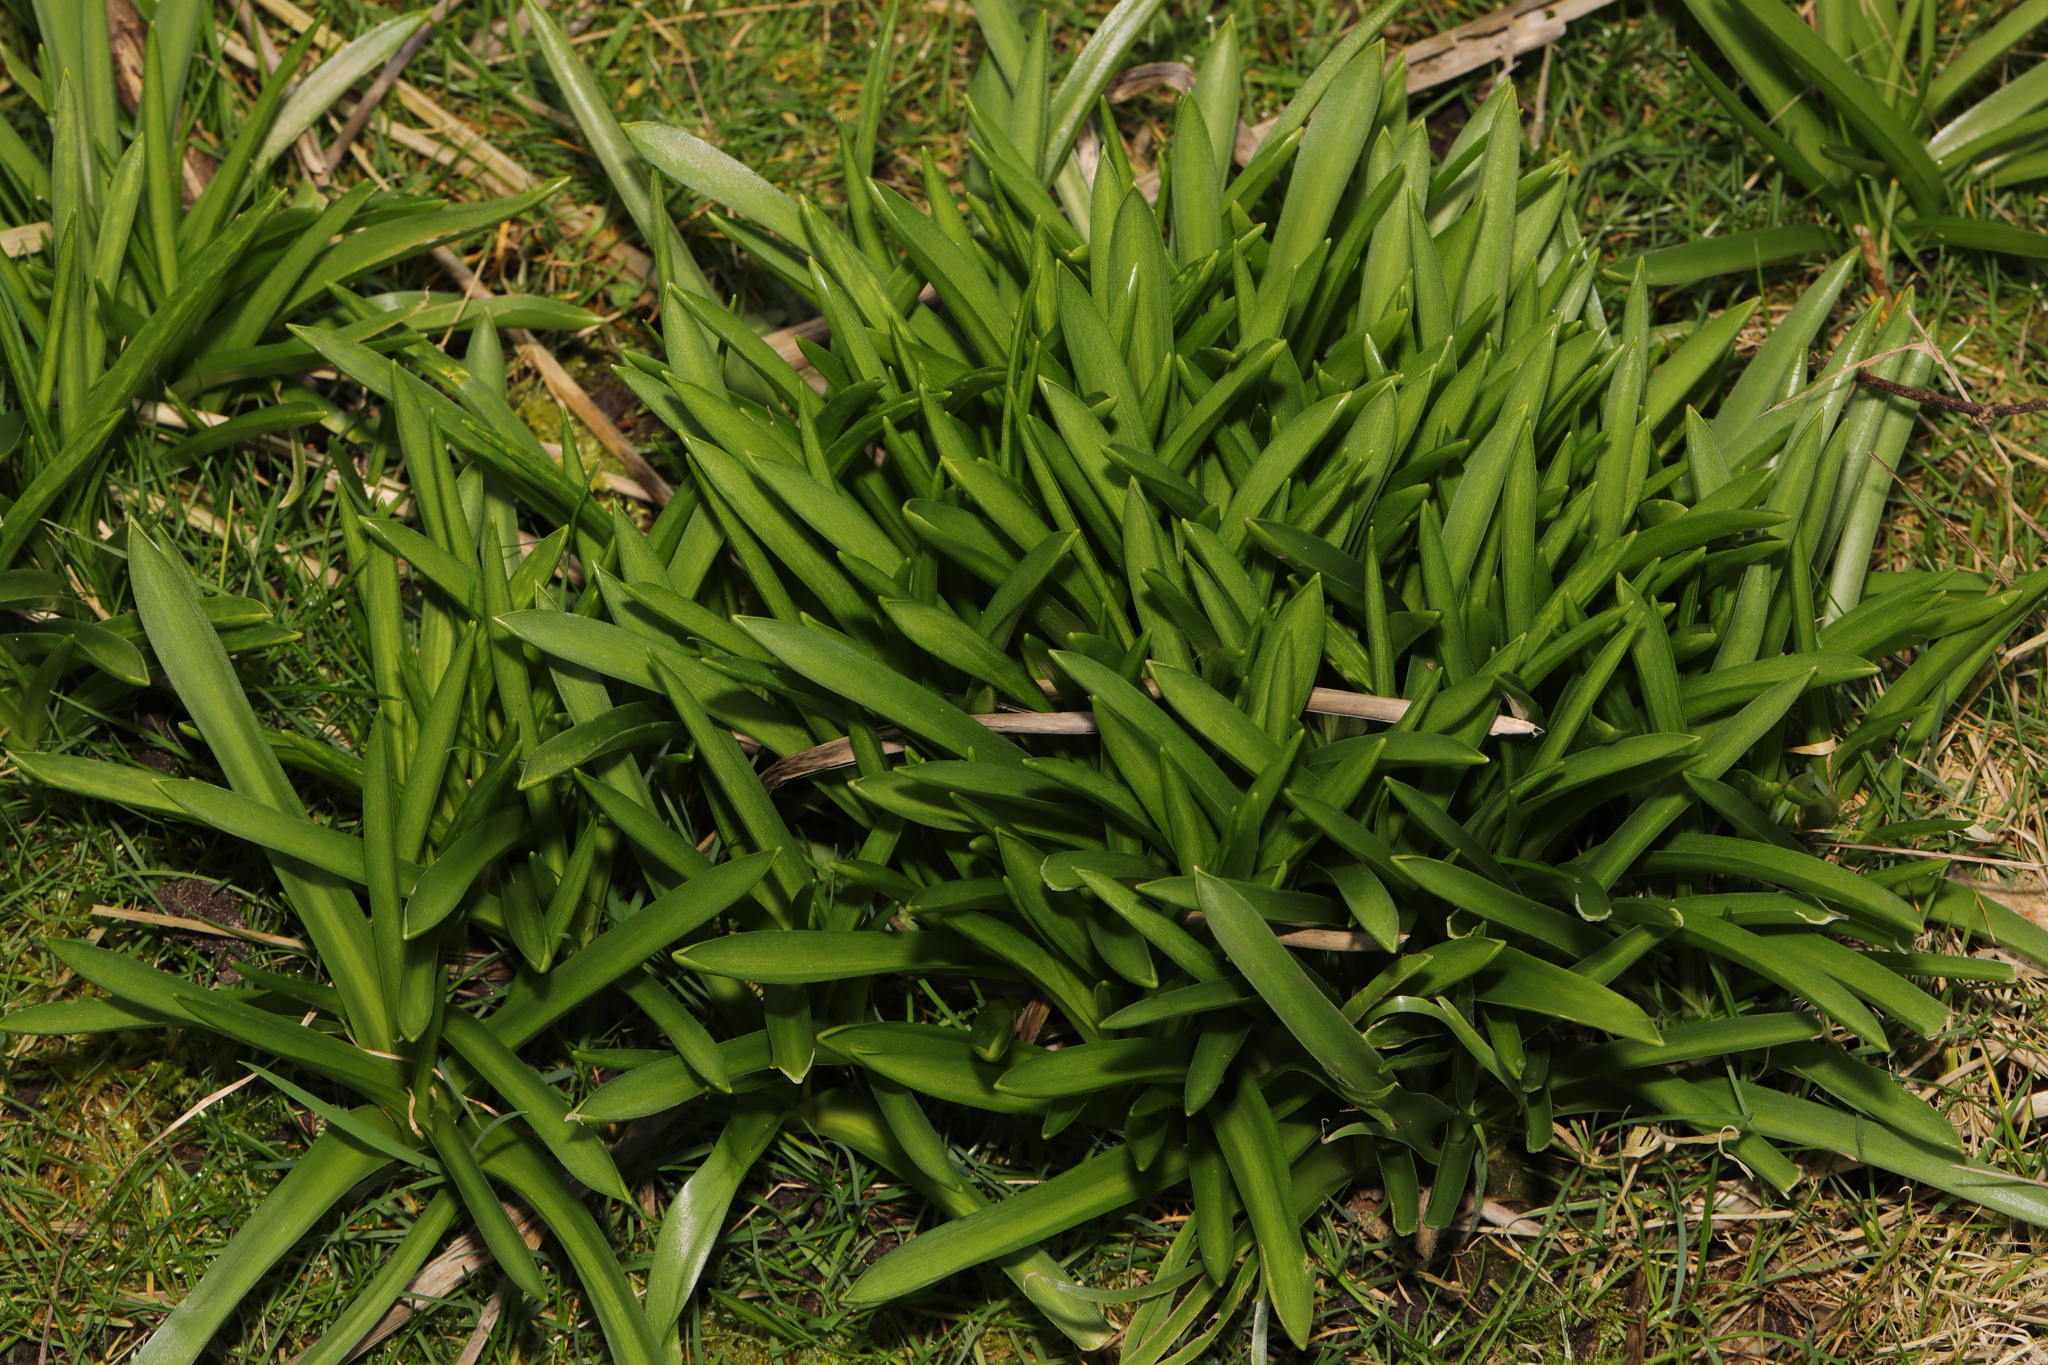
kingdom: Plantae
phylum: Tracheophyta
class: Liliopsida
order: Asparagales
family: Asparagaceae
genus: Hyacinthoides
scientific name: Hyacinthoides massartiana
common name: Hyacinthoides
